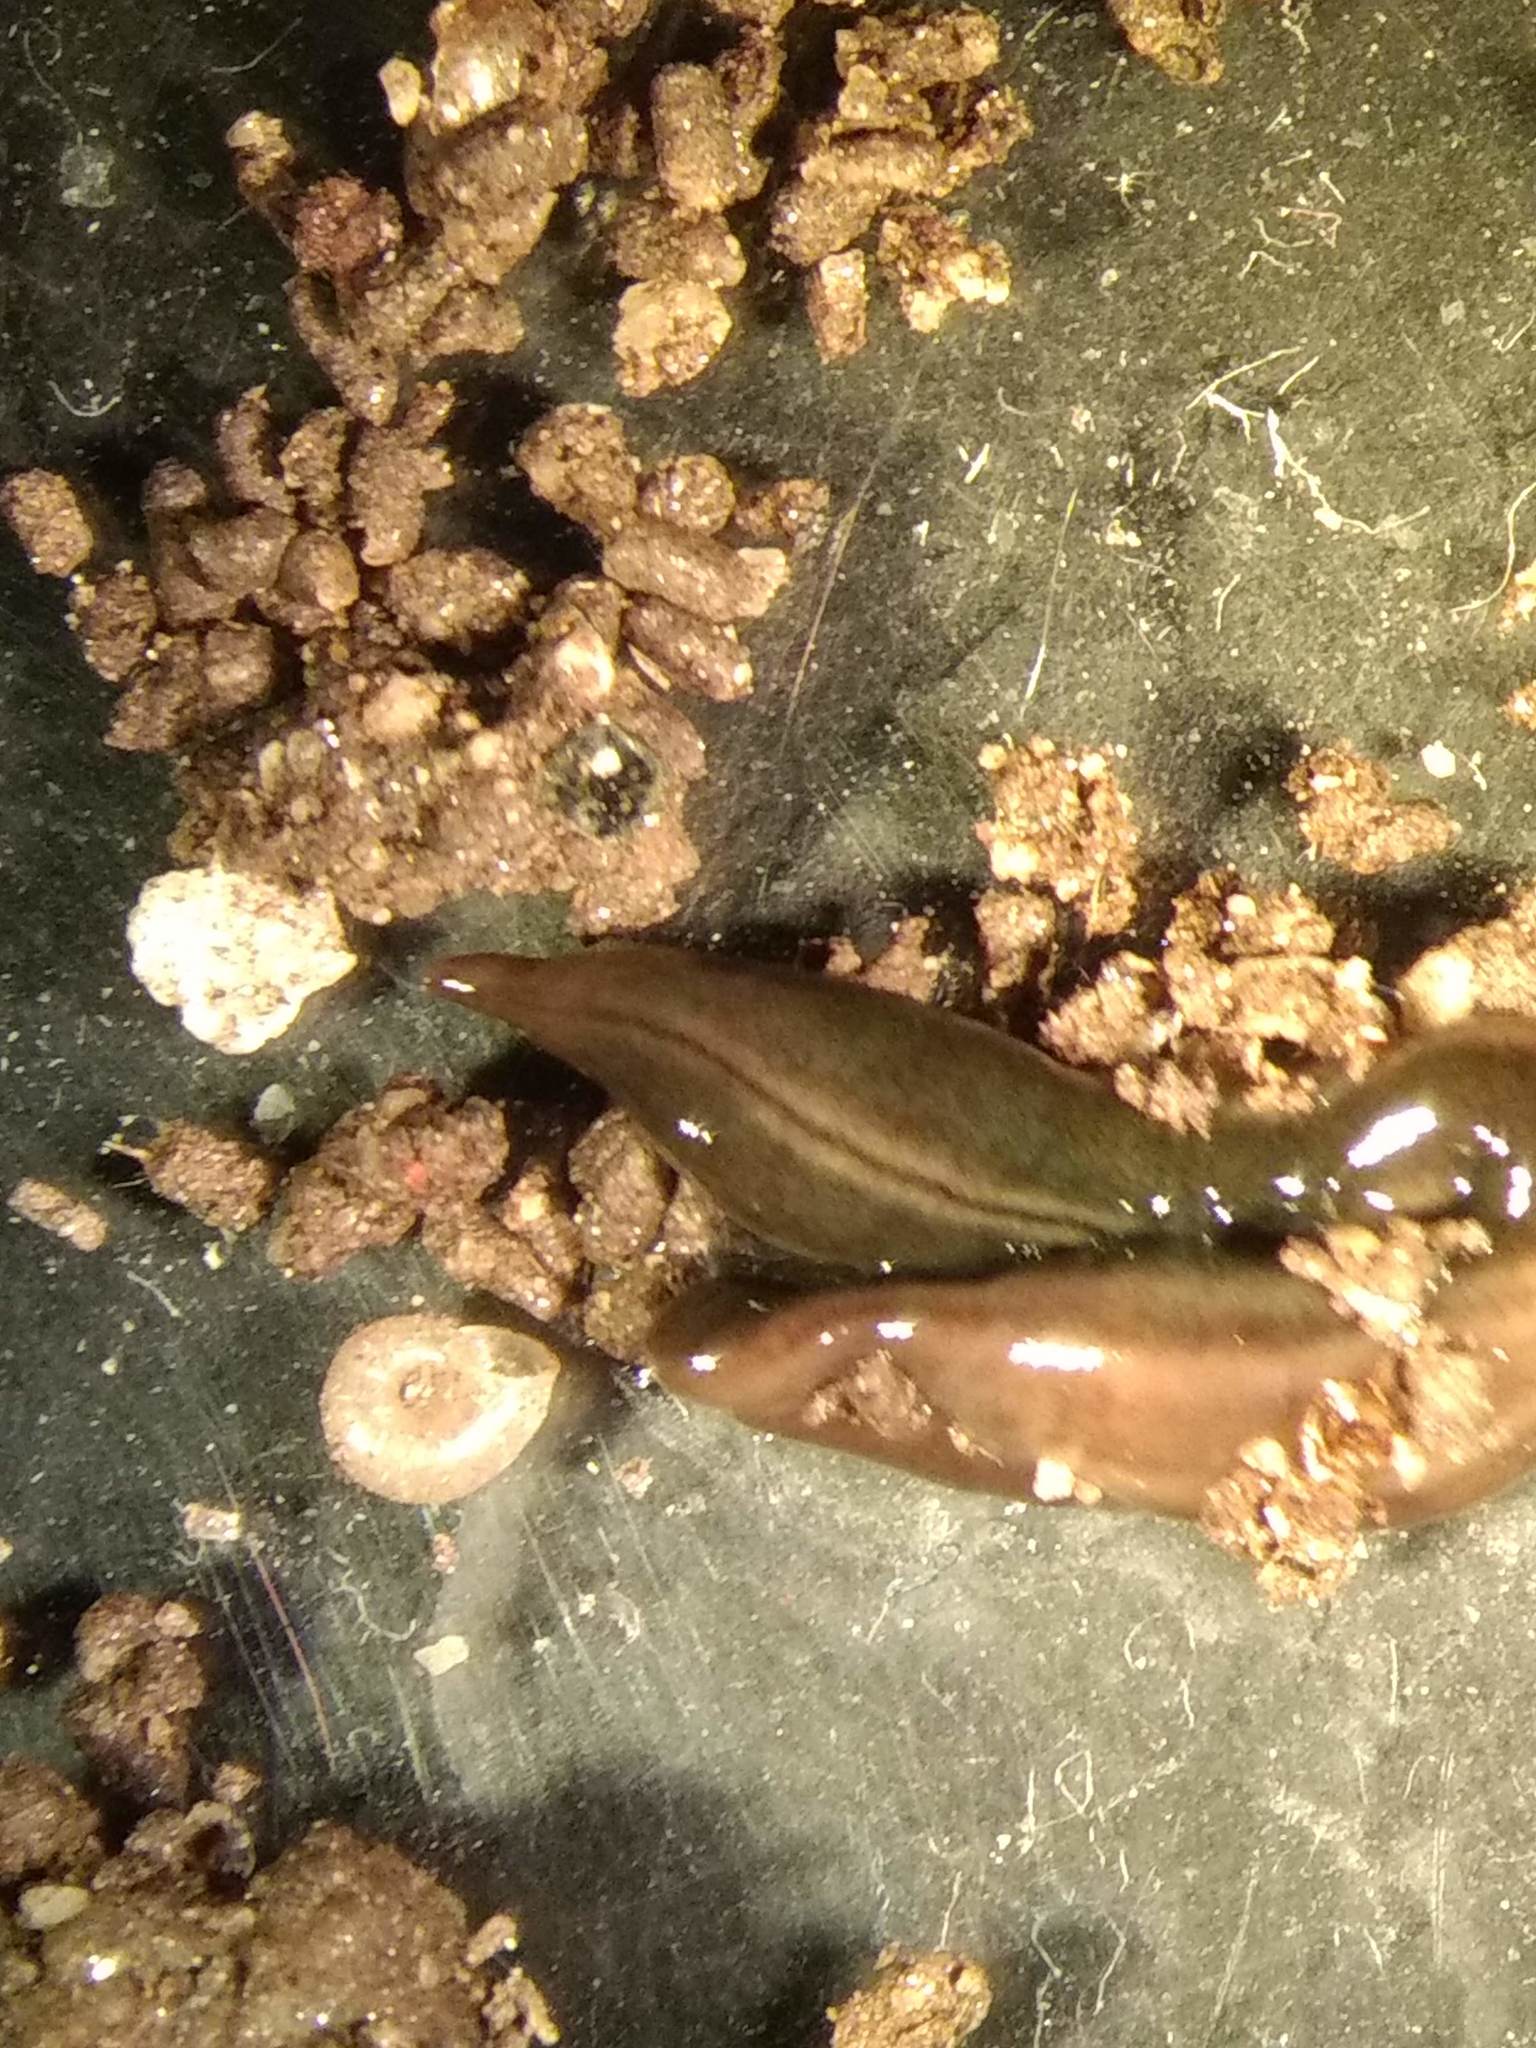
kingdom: Animalia
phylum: Platyhelminthes
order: Tricladida
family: Geoplanidae
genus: Parakontikia
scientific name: Parakontikia ventrolineata
